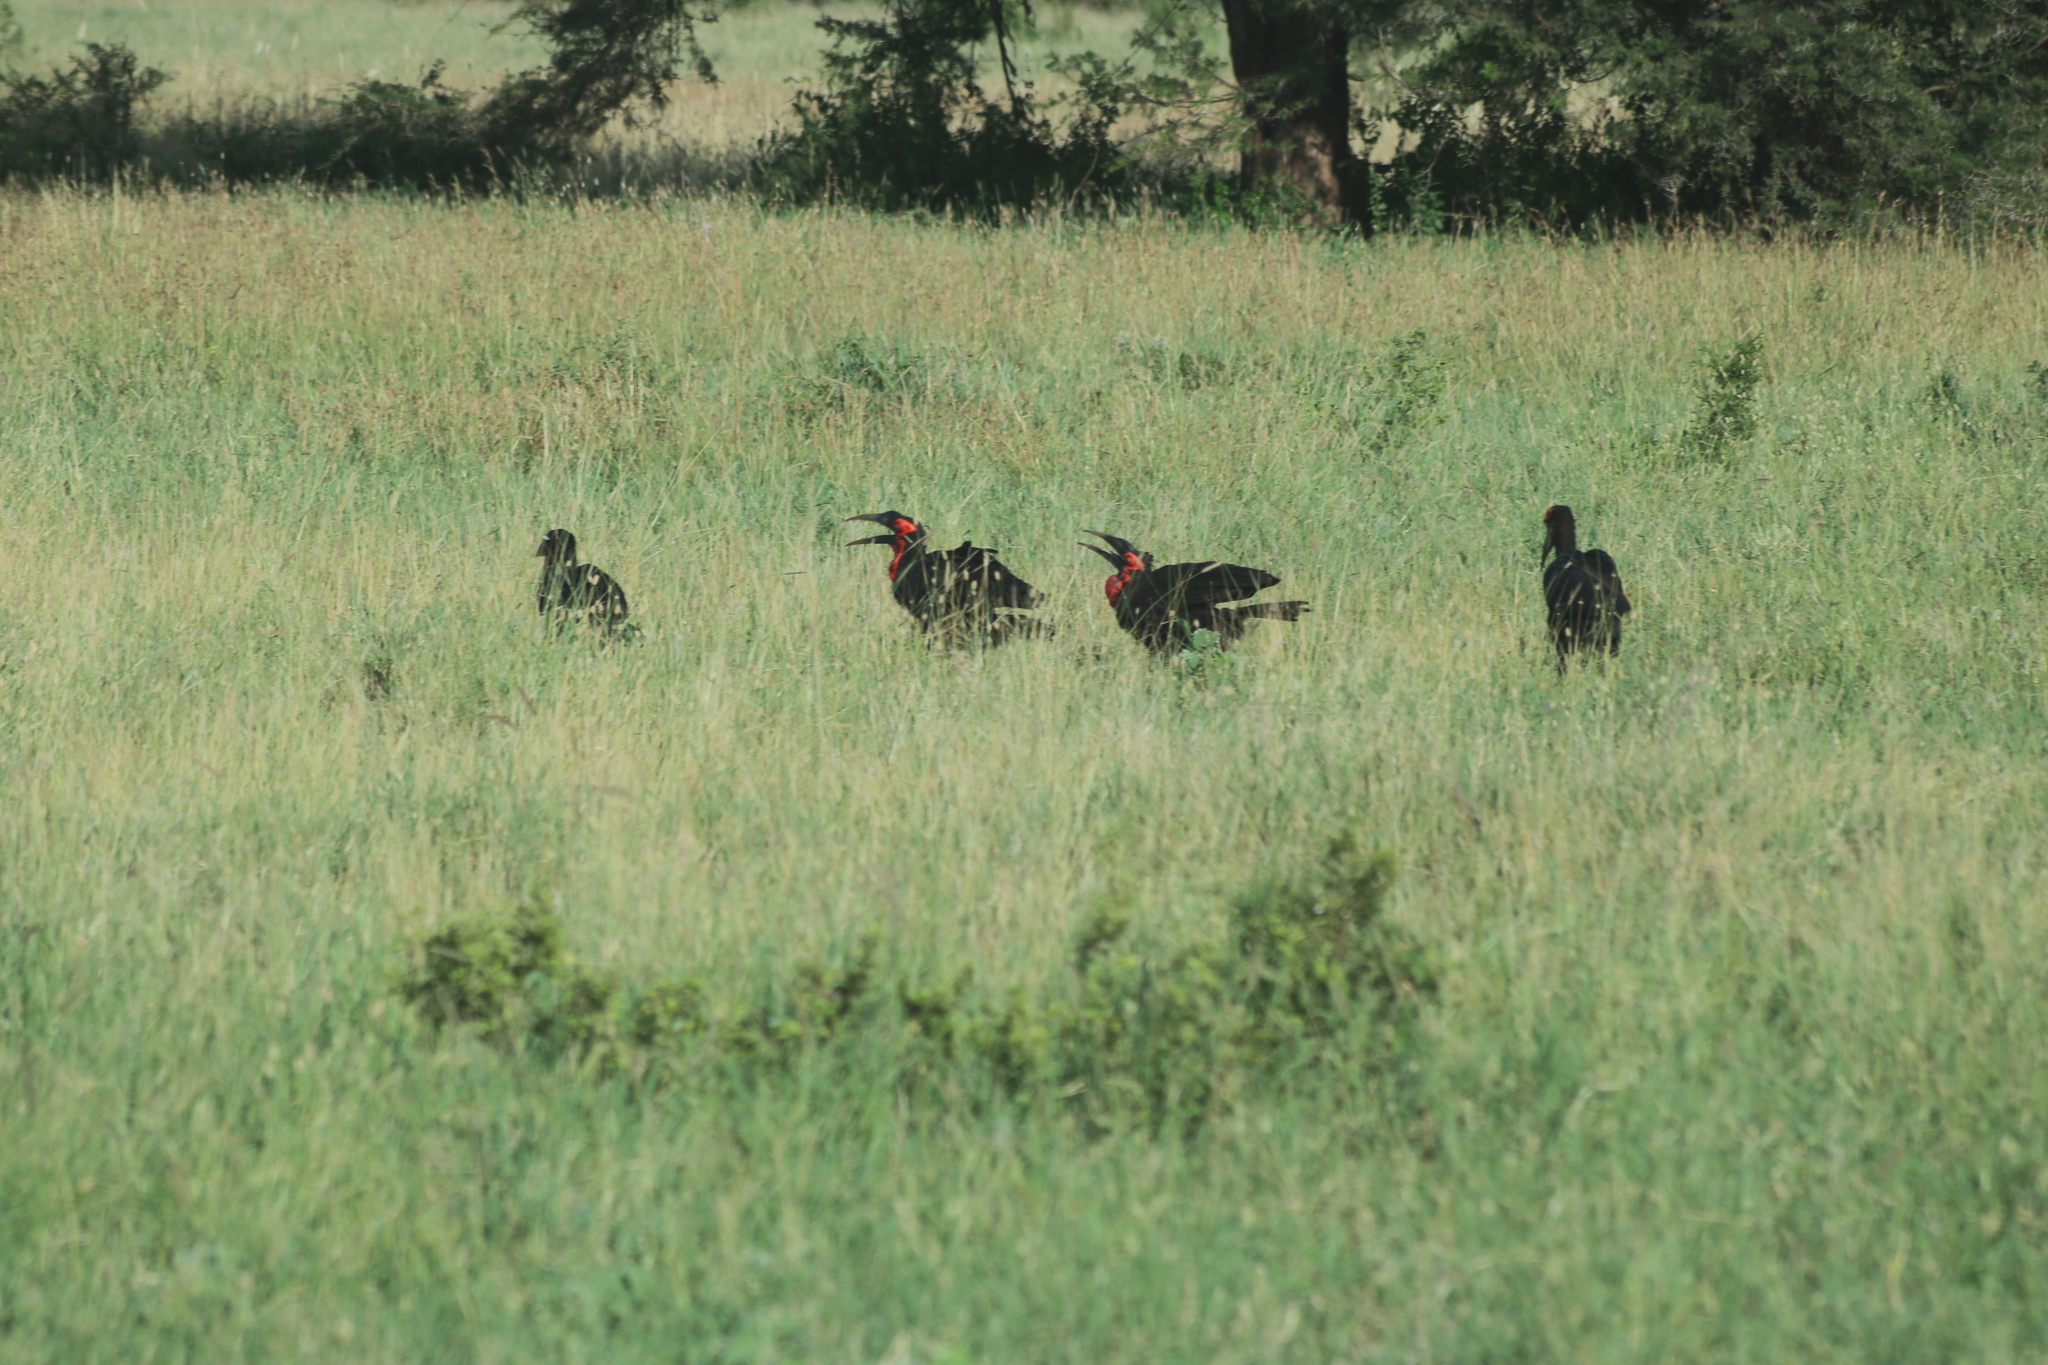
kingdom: Animalia
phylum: Chordata
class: Aves
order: Bucerotiformes
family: Bucorvidae
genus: Bucorvus
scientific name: Bucorvus leadbeateri
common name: Southern ground-hornbill
